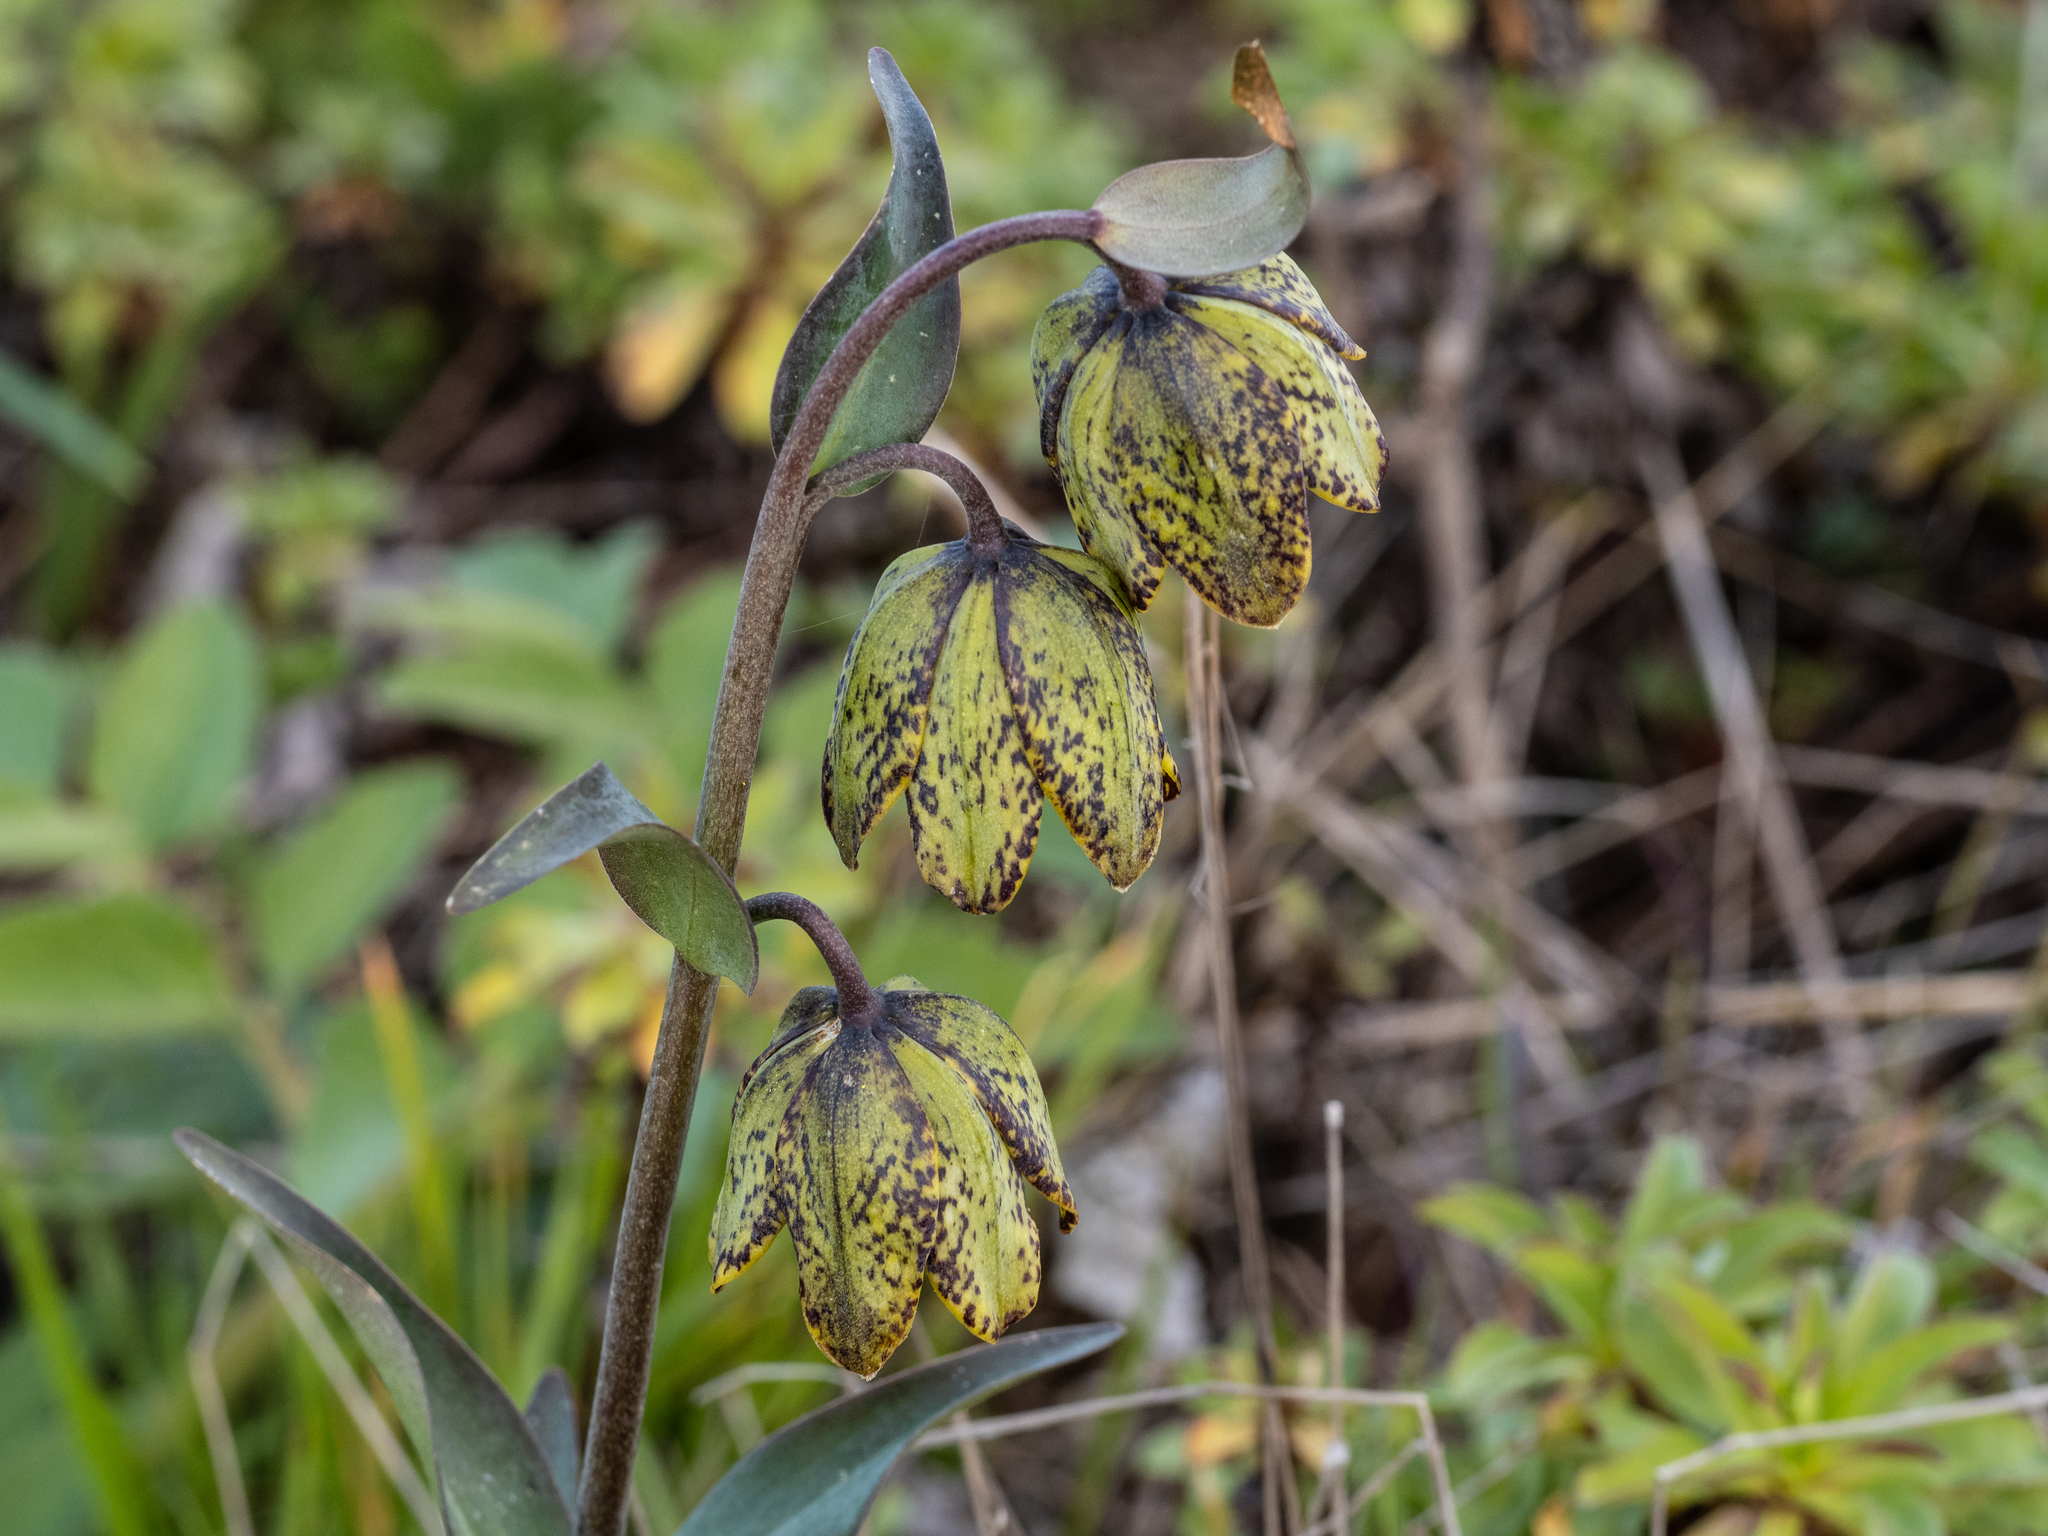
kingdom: Plantae
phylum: Tracheophyta
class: Liliopsida
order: Liliales
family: Liliaceae
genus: Fritillaria
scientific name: Fritillaria affinis
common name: Ojai fritillary
